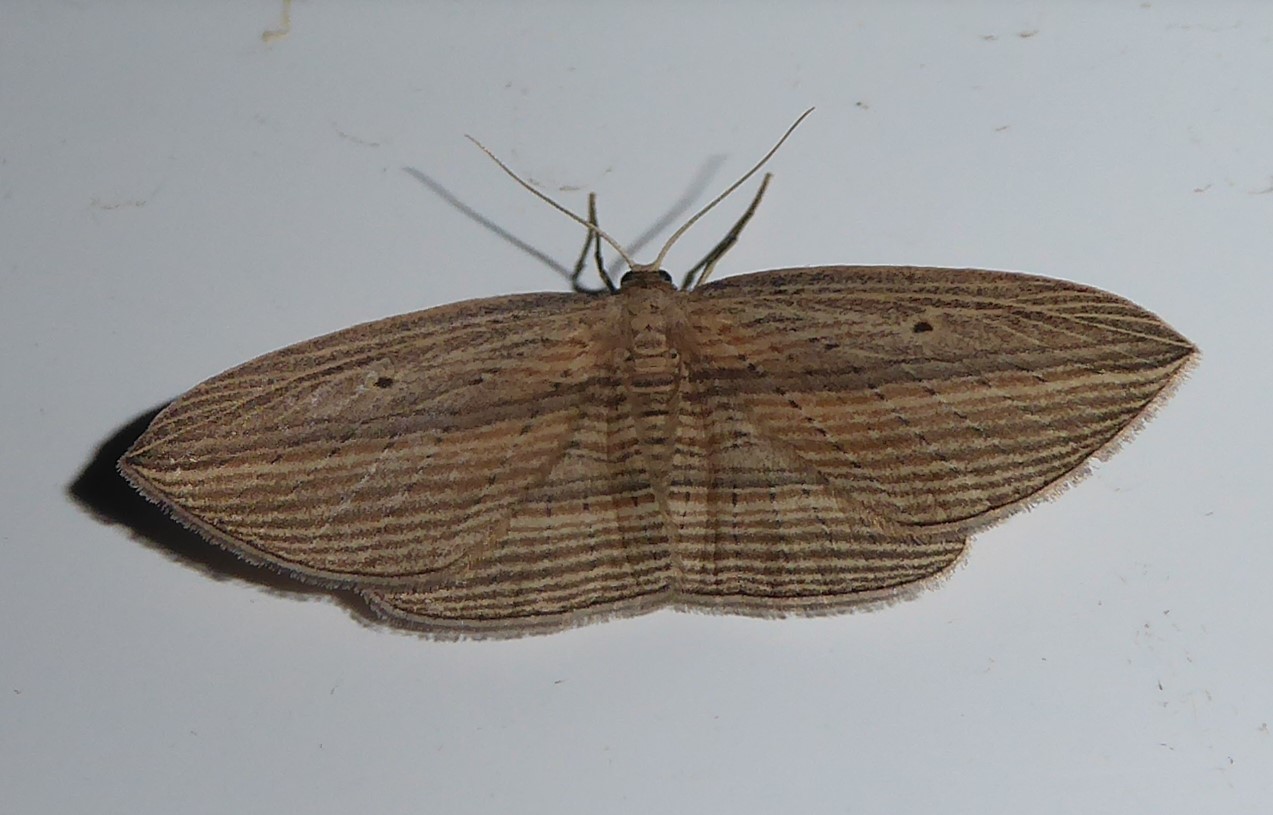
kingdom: Animalia
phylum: Arthropoda
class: Insecta
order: Lepidoptera
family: Geometridae
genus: Epiphryne
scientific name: Epiphryne verriculata
